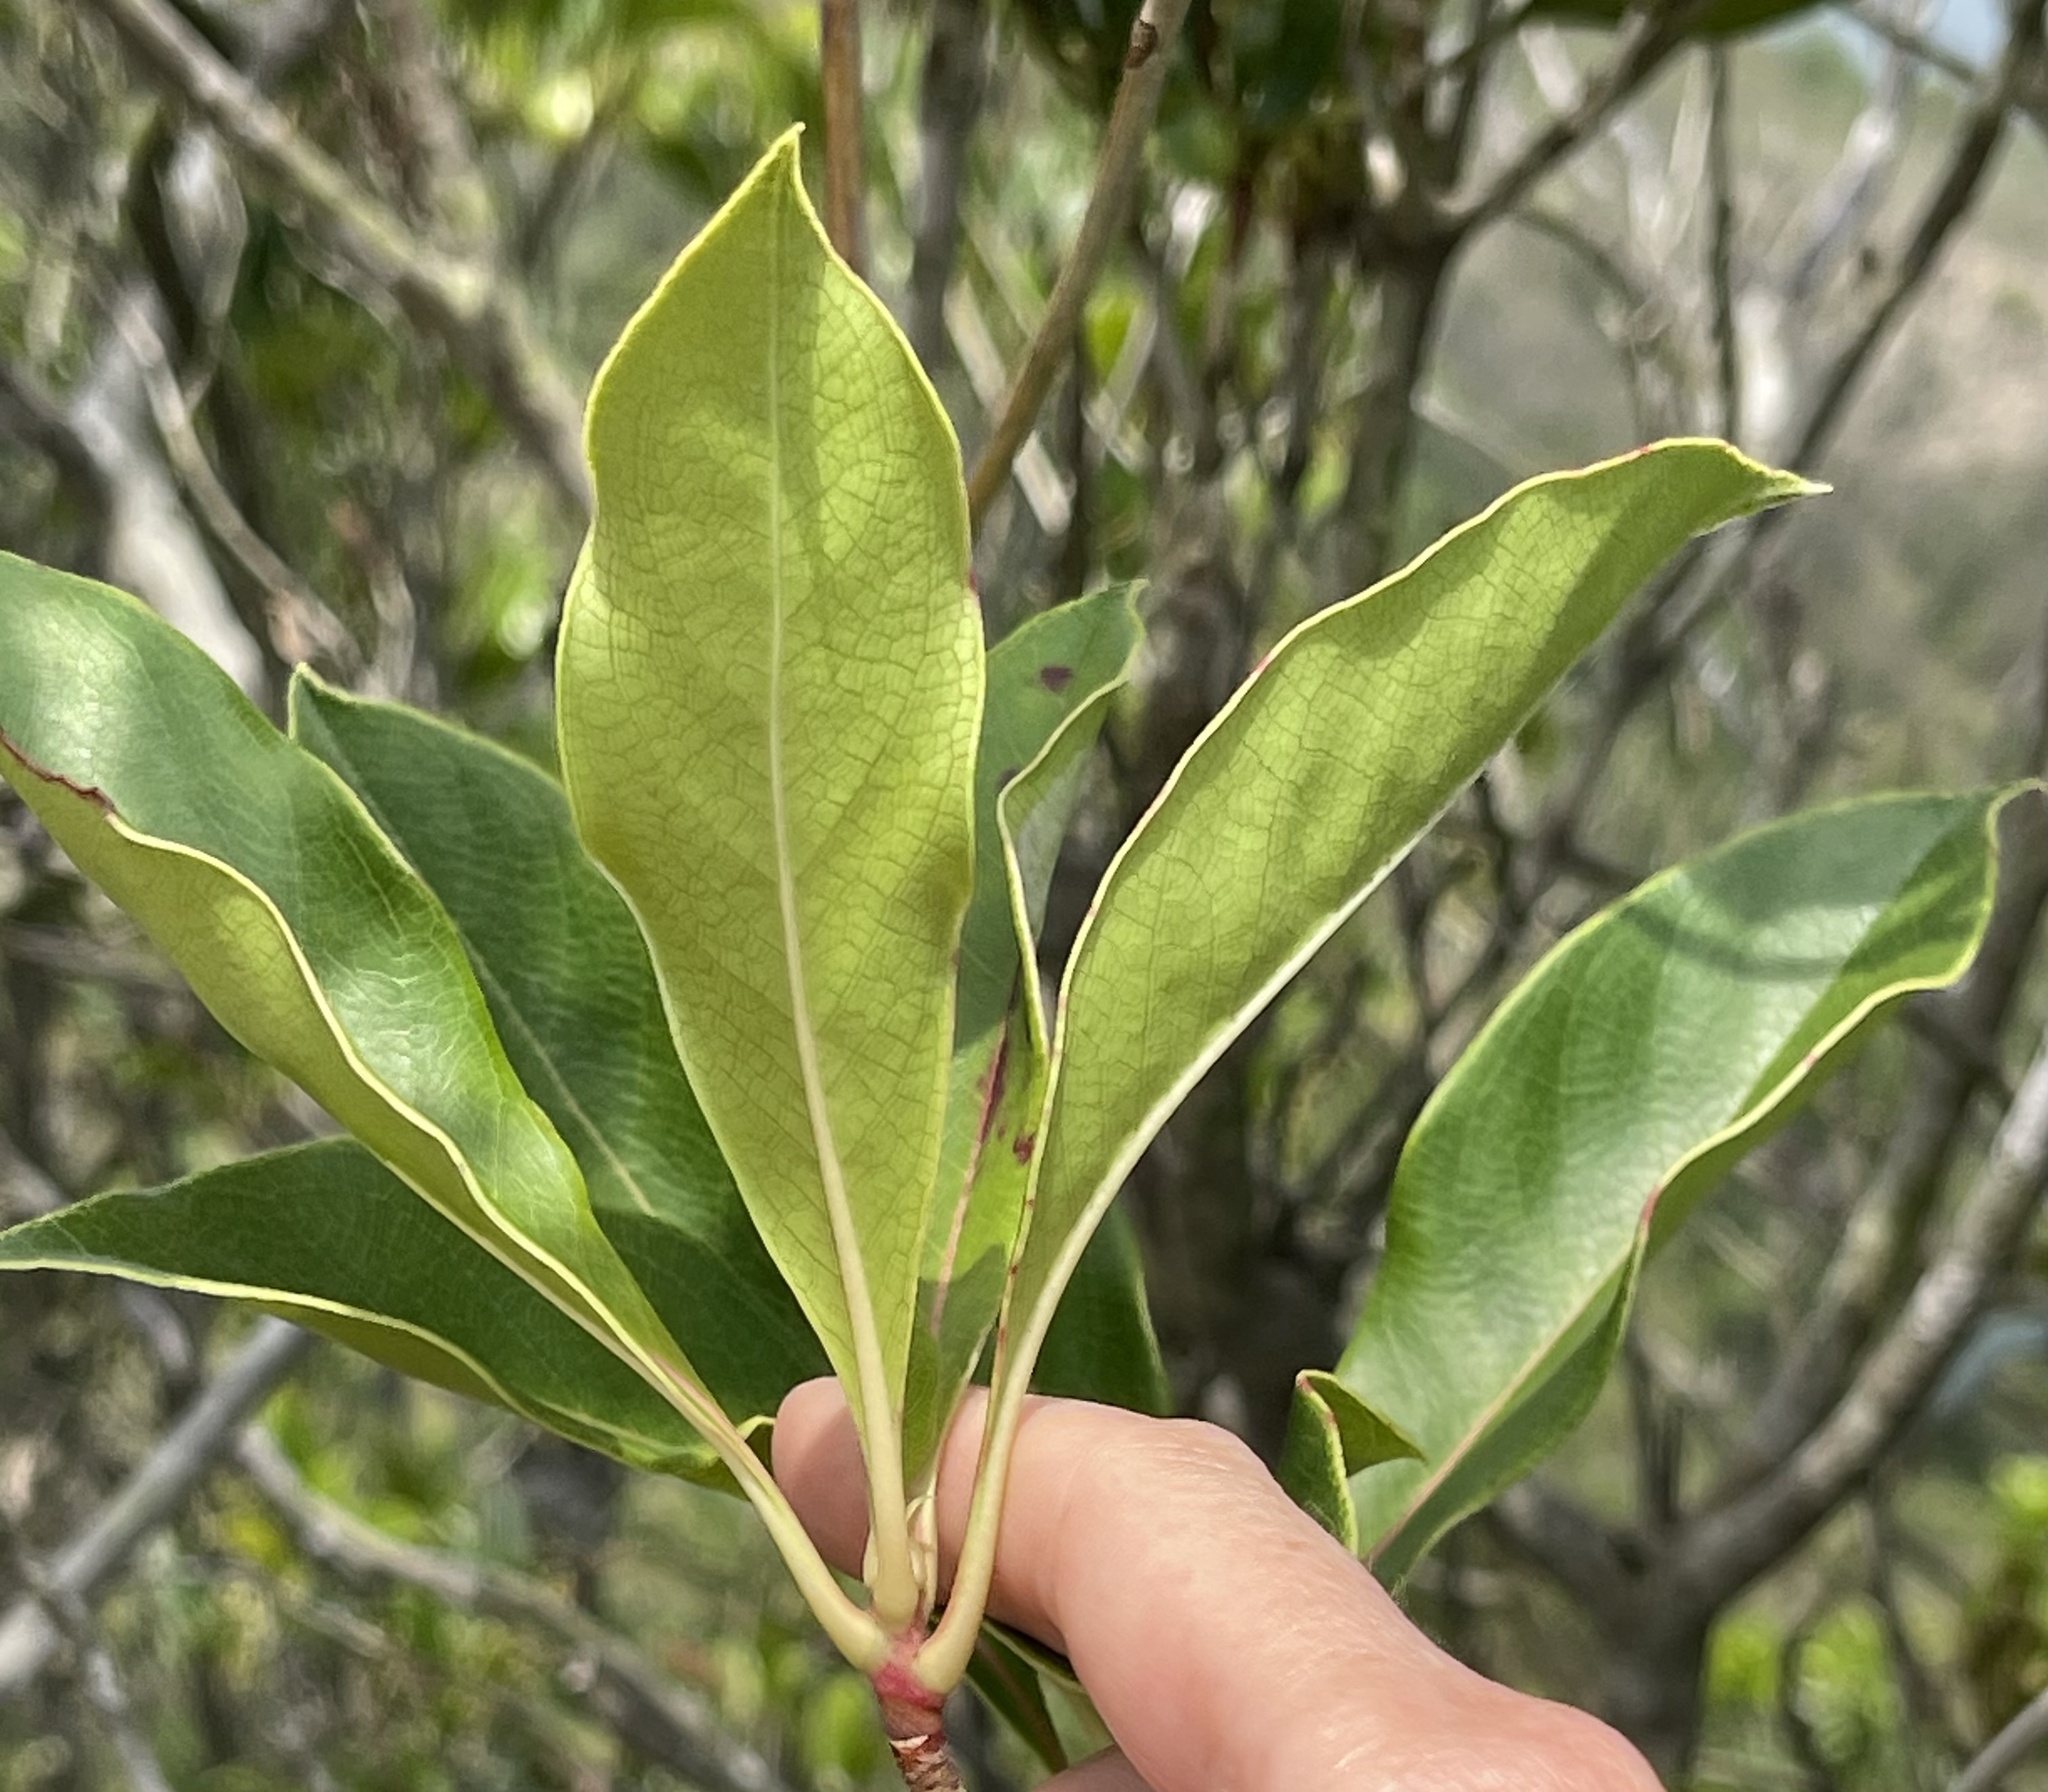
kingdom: Plantae
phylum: Tracheophyta
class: Magnoliopsida
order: Ericales
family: Ericaceae
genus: Enkianthus
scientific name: Enkianthus quinqueflorus
